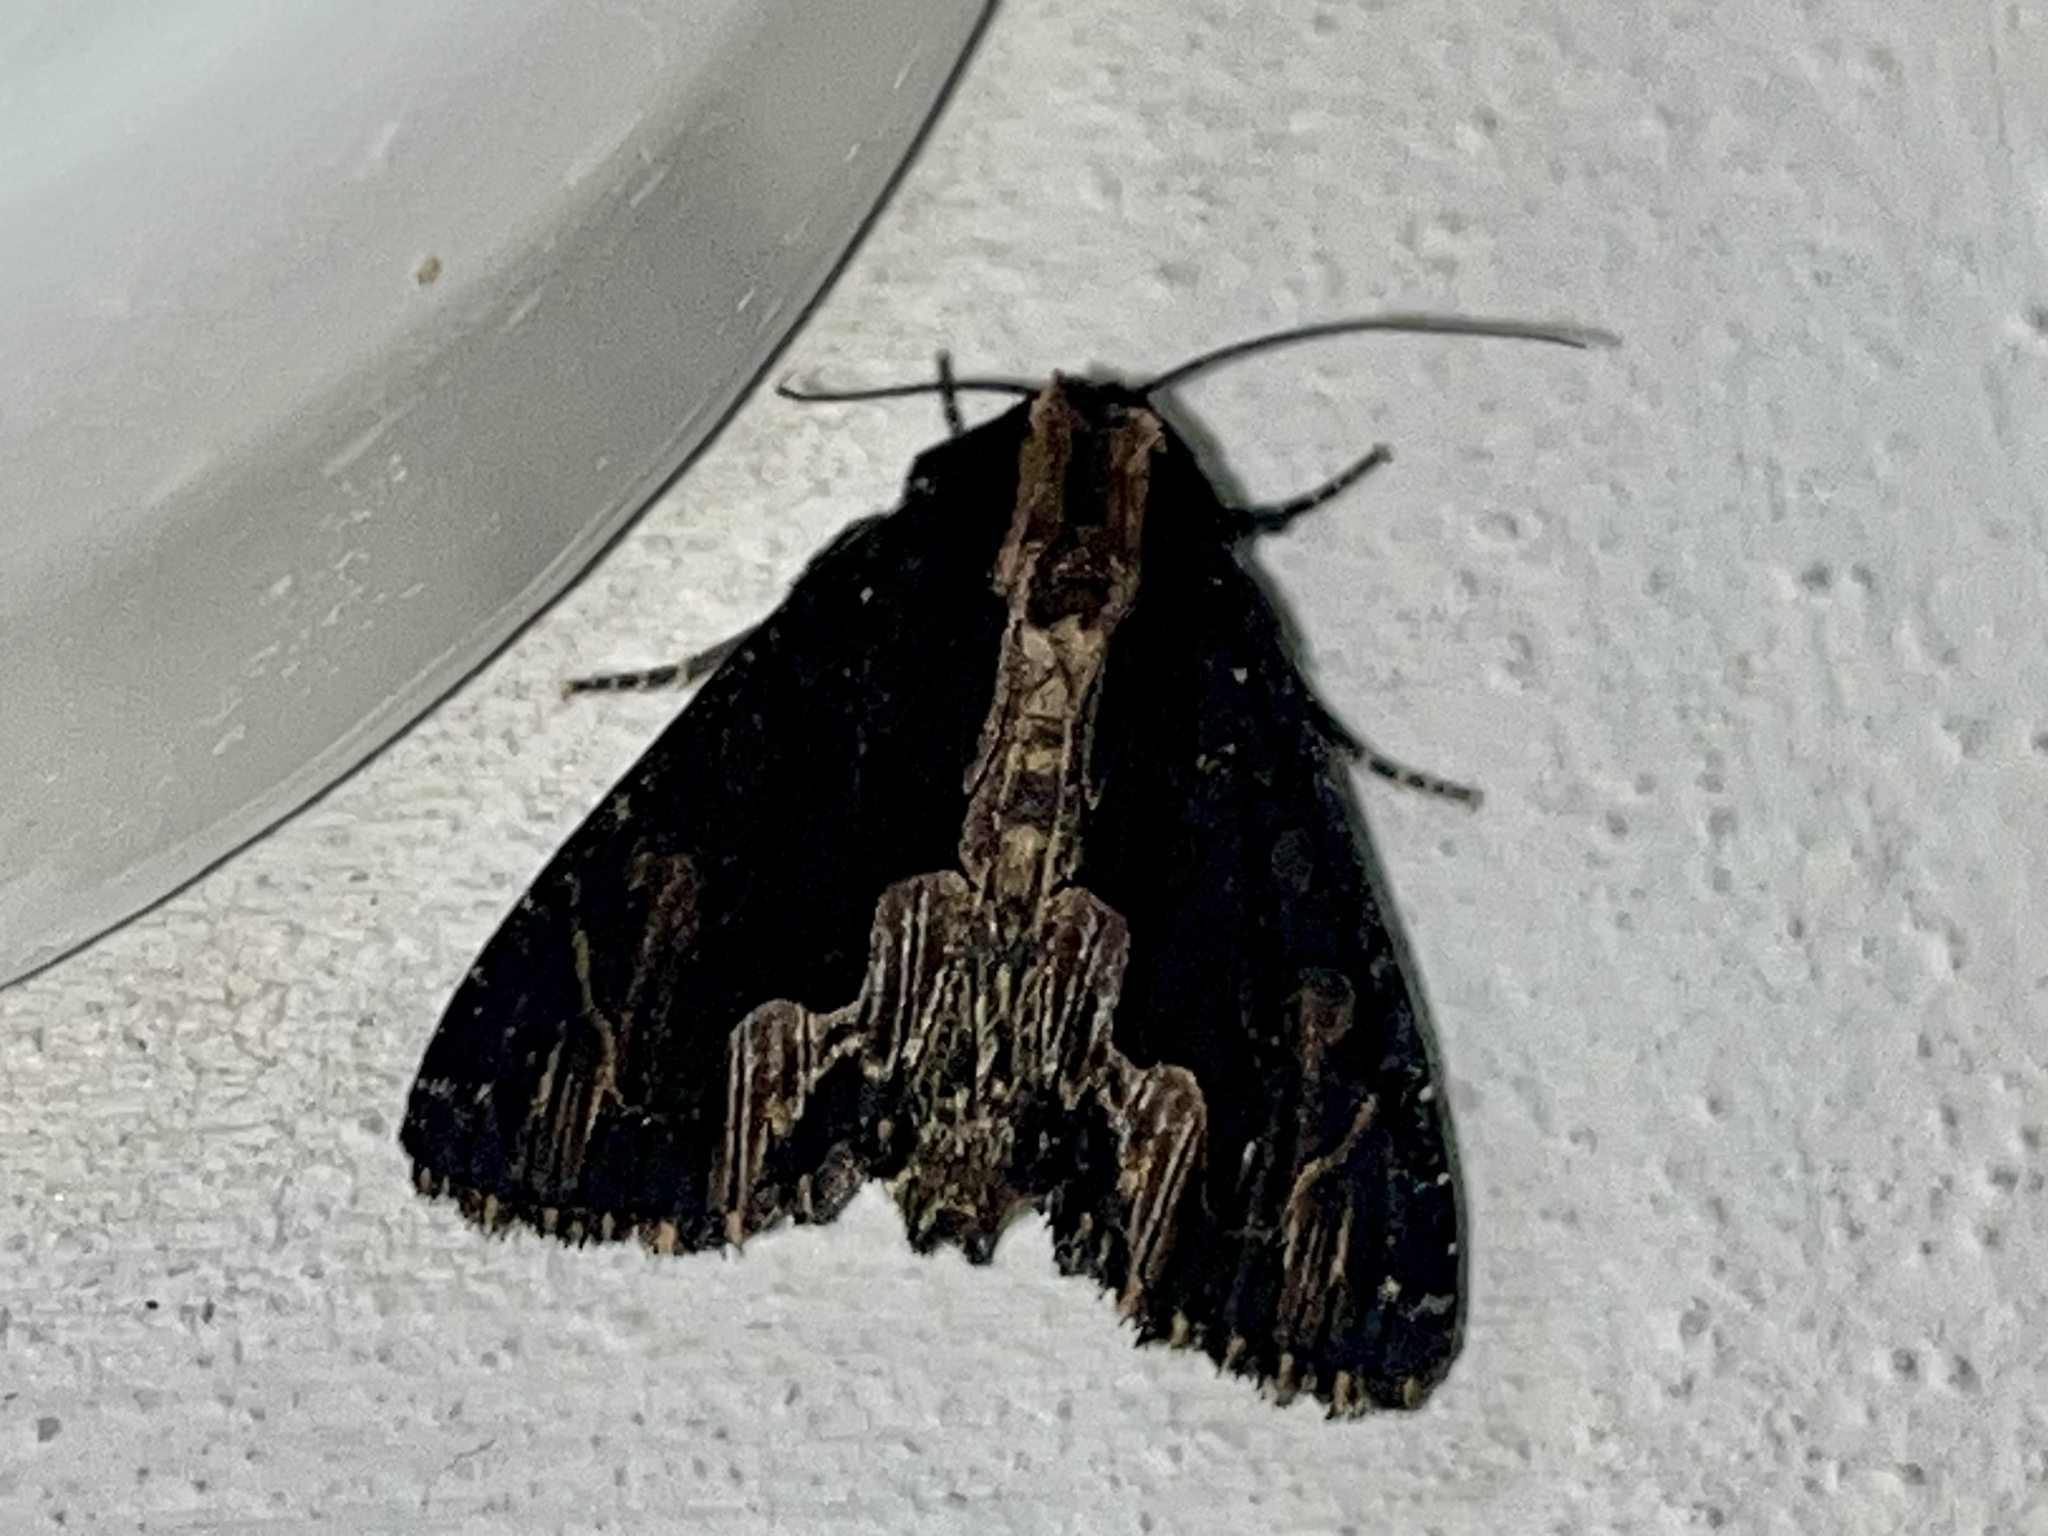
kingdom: Animalia
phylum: Arthropoda
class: Insecta
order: Lepidoptera
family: Noctuidae
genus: Dypterygia
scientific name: Dypterygia scabriuscula
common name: Bird's wing
